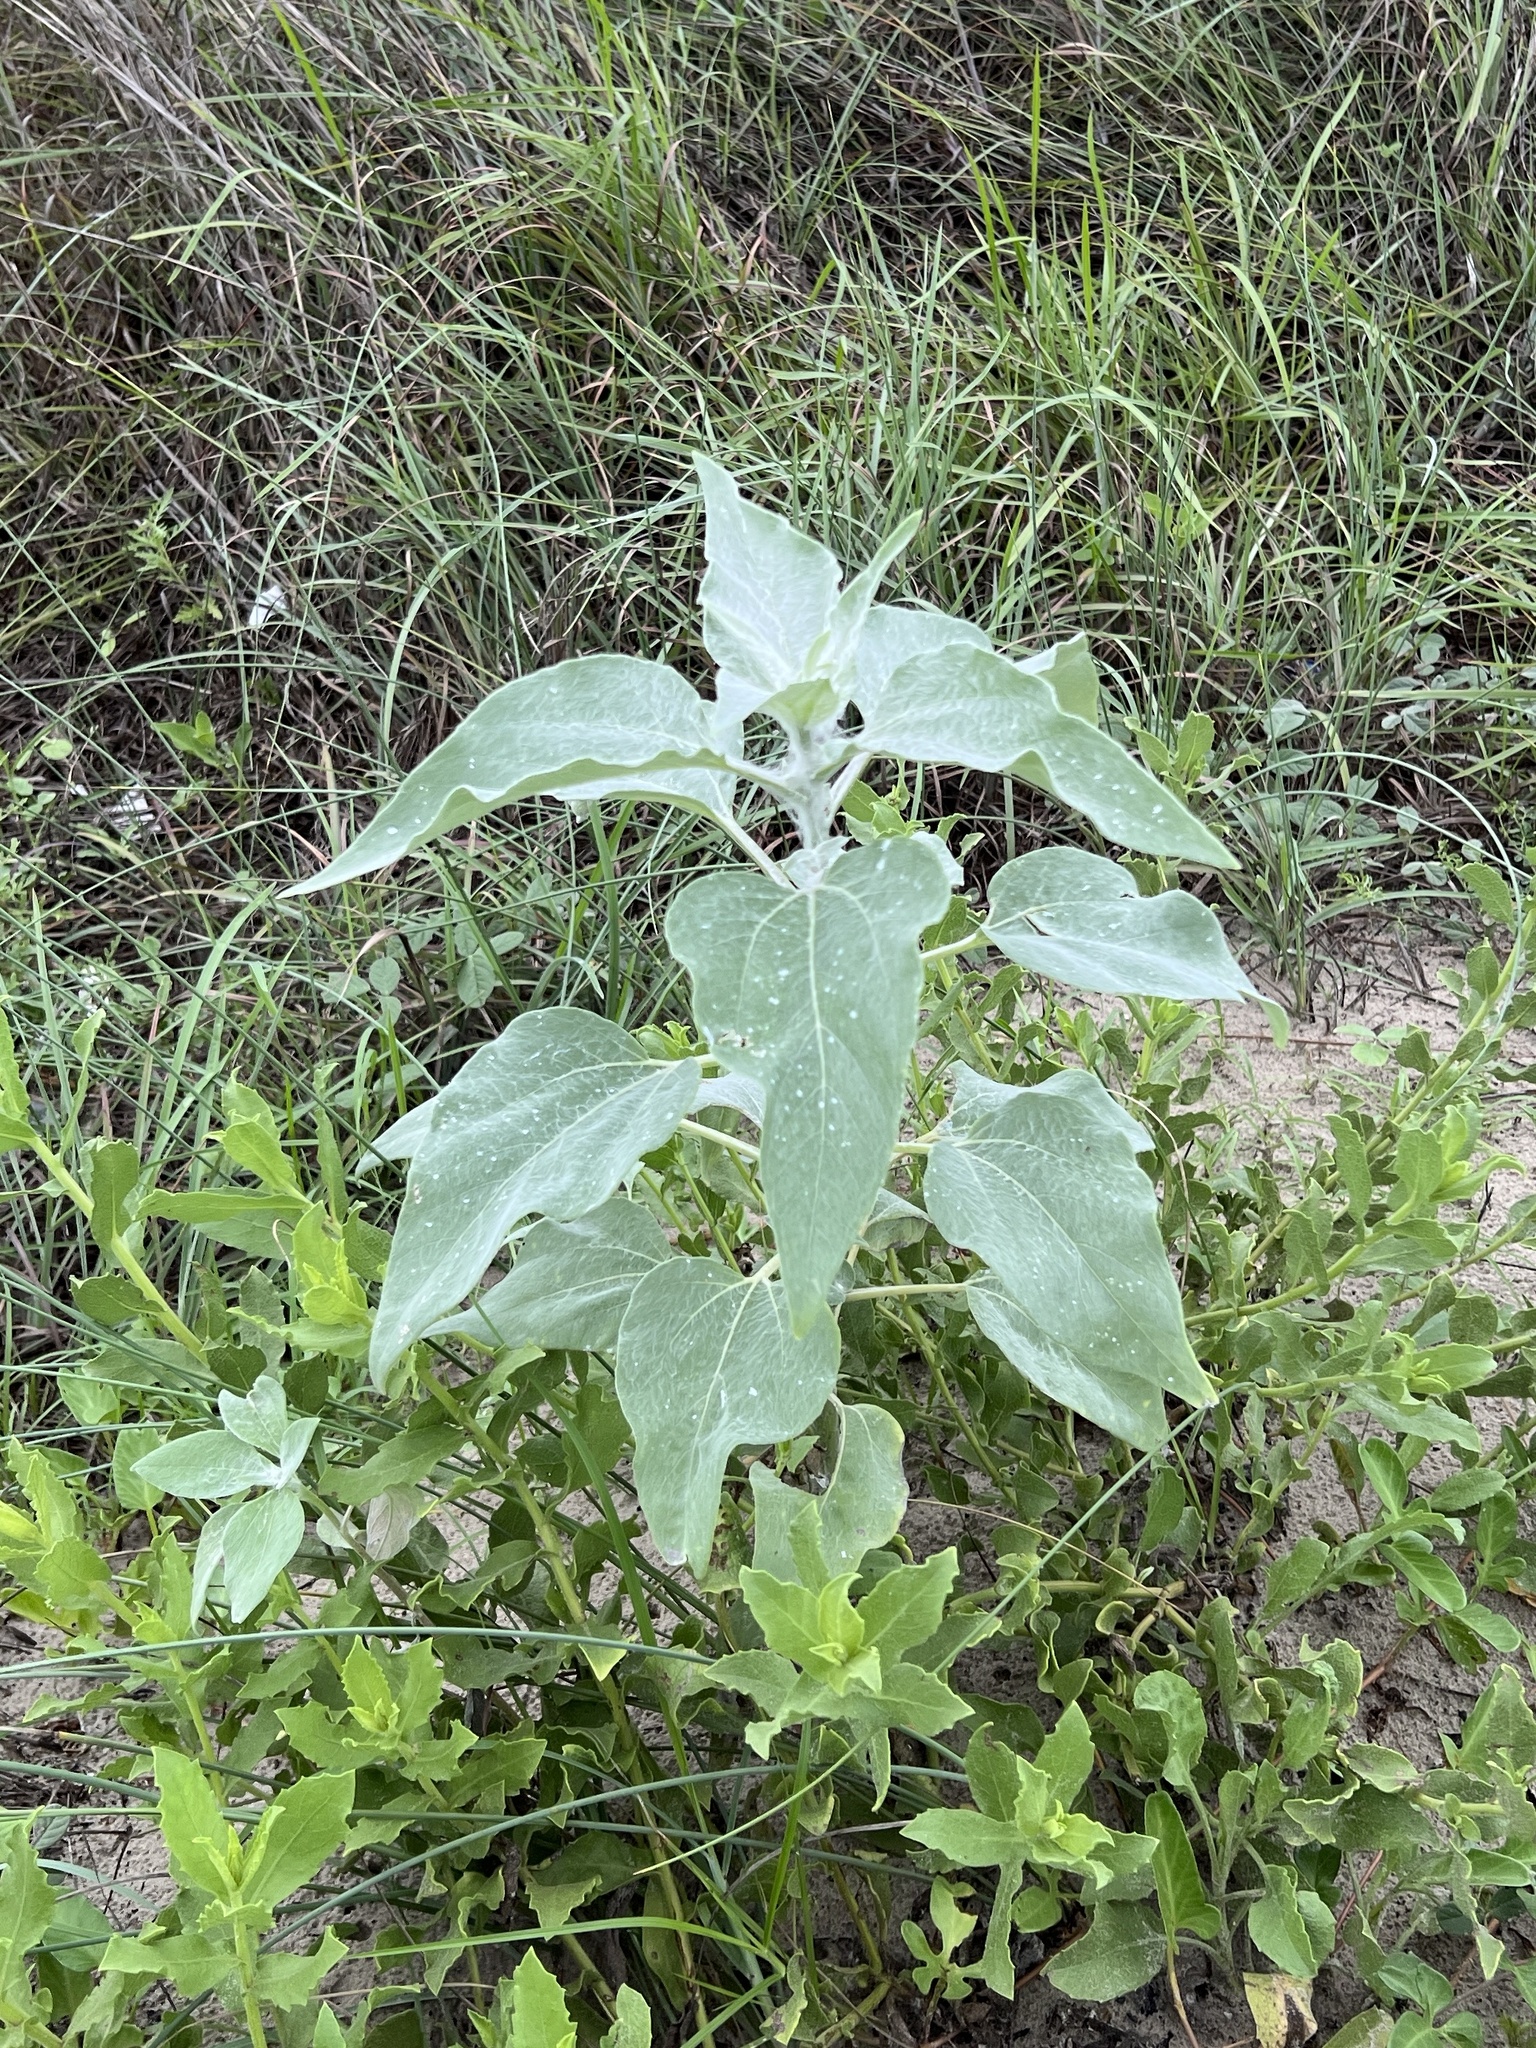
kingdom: Plantae
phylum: Tracheophyta
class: Magnoliopsida
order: Asterales
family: Asteraceae
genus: Helianthus
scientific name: Helianthus argophyllus
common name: Silverleaf sunflower
